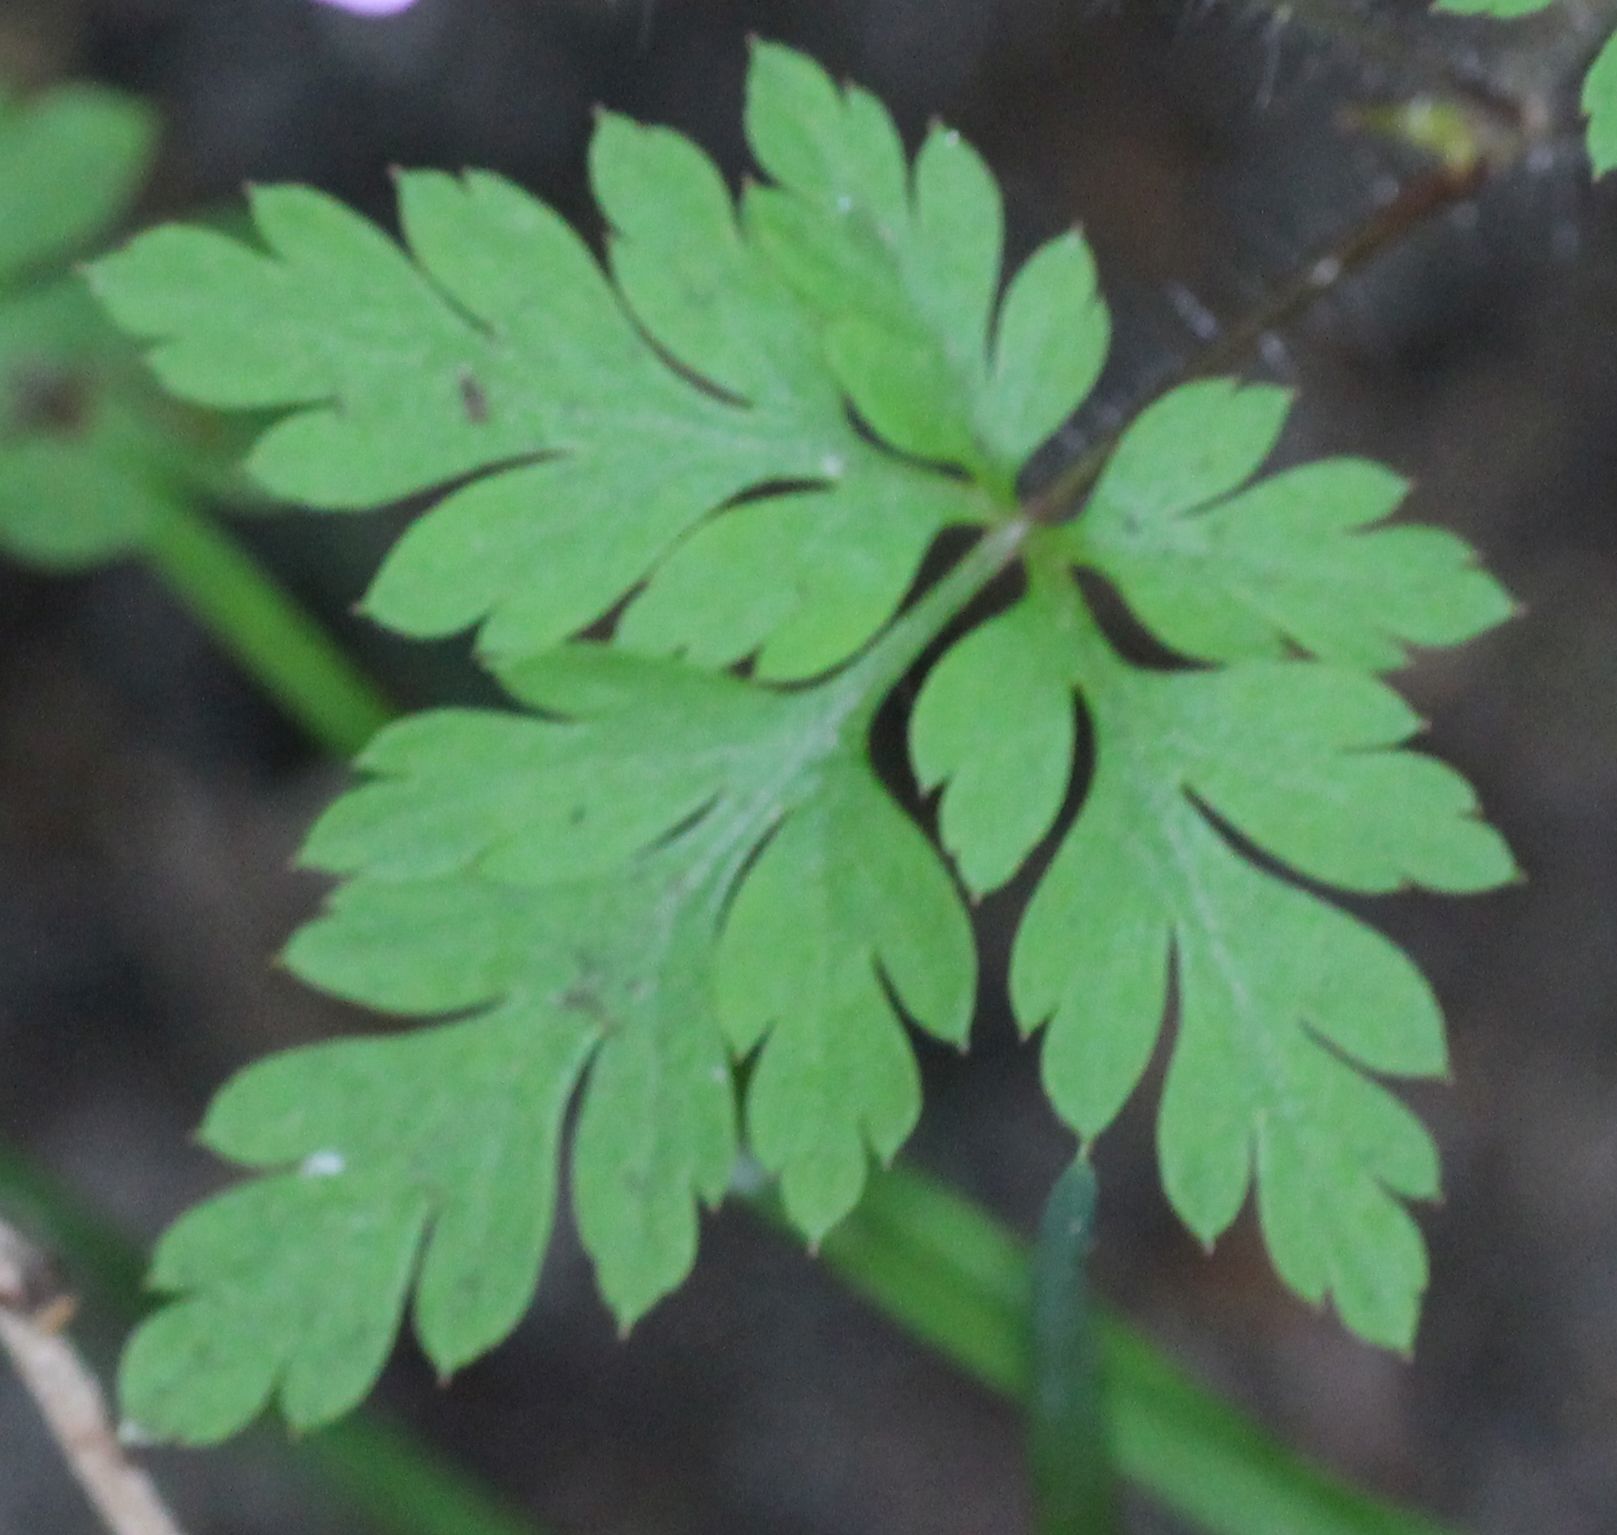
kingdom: Plantae
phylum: Tracheophyta
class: Magnoliopsida
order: Geraniales
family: Geraniaceae
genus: Geranium
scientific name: Geranium robertianum
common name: Herb-robert
